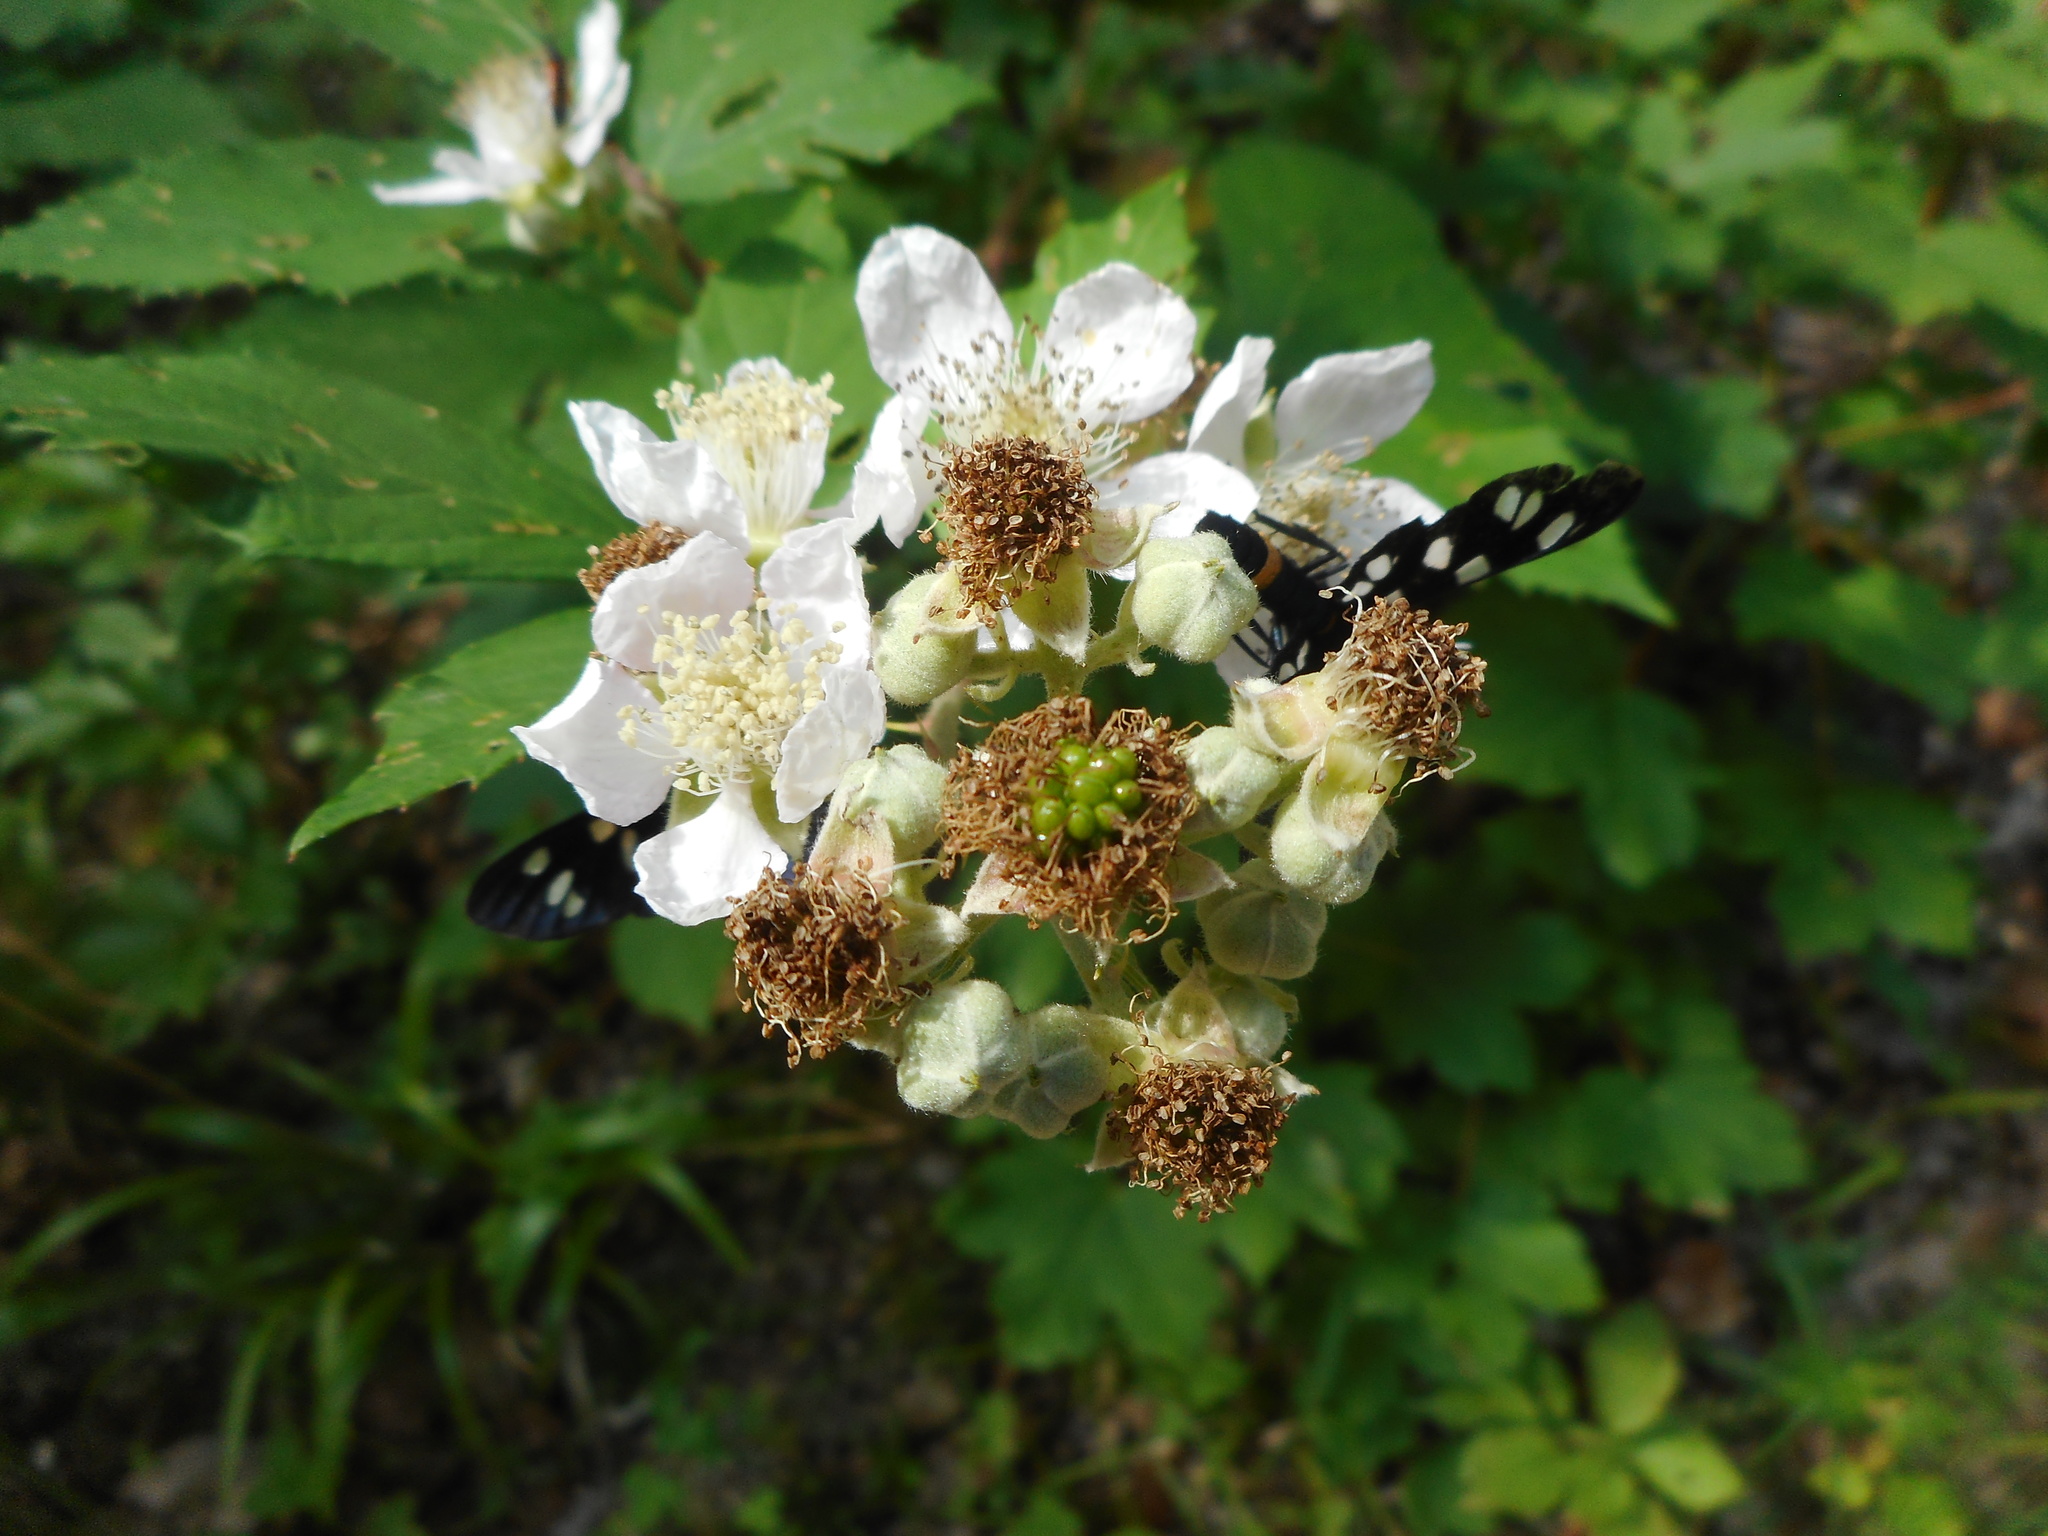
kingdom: Animalia
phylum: Arthropoda
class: Insecta
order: Lepidoptera
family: Erebidae
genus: Amata
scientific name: Amata phegea
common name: Nine-spotted
